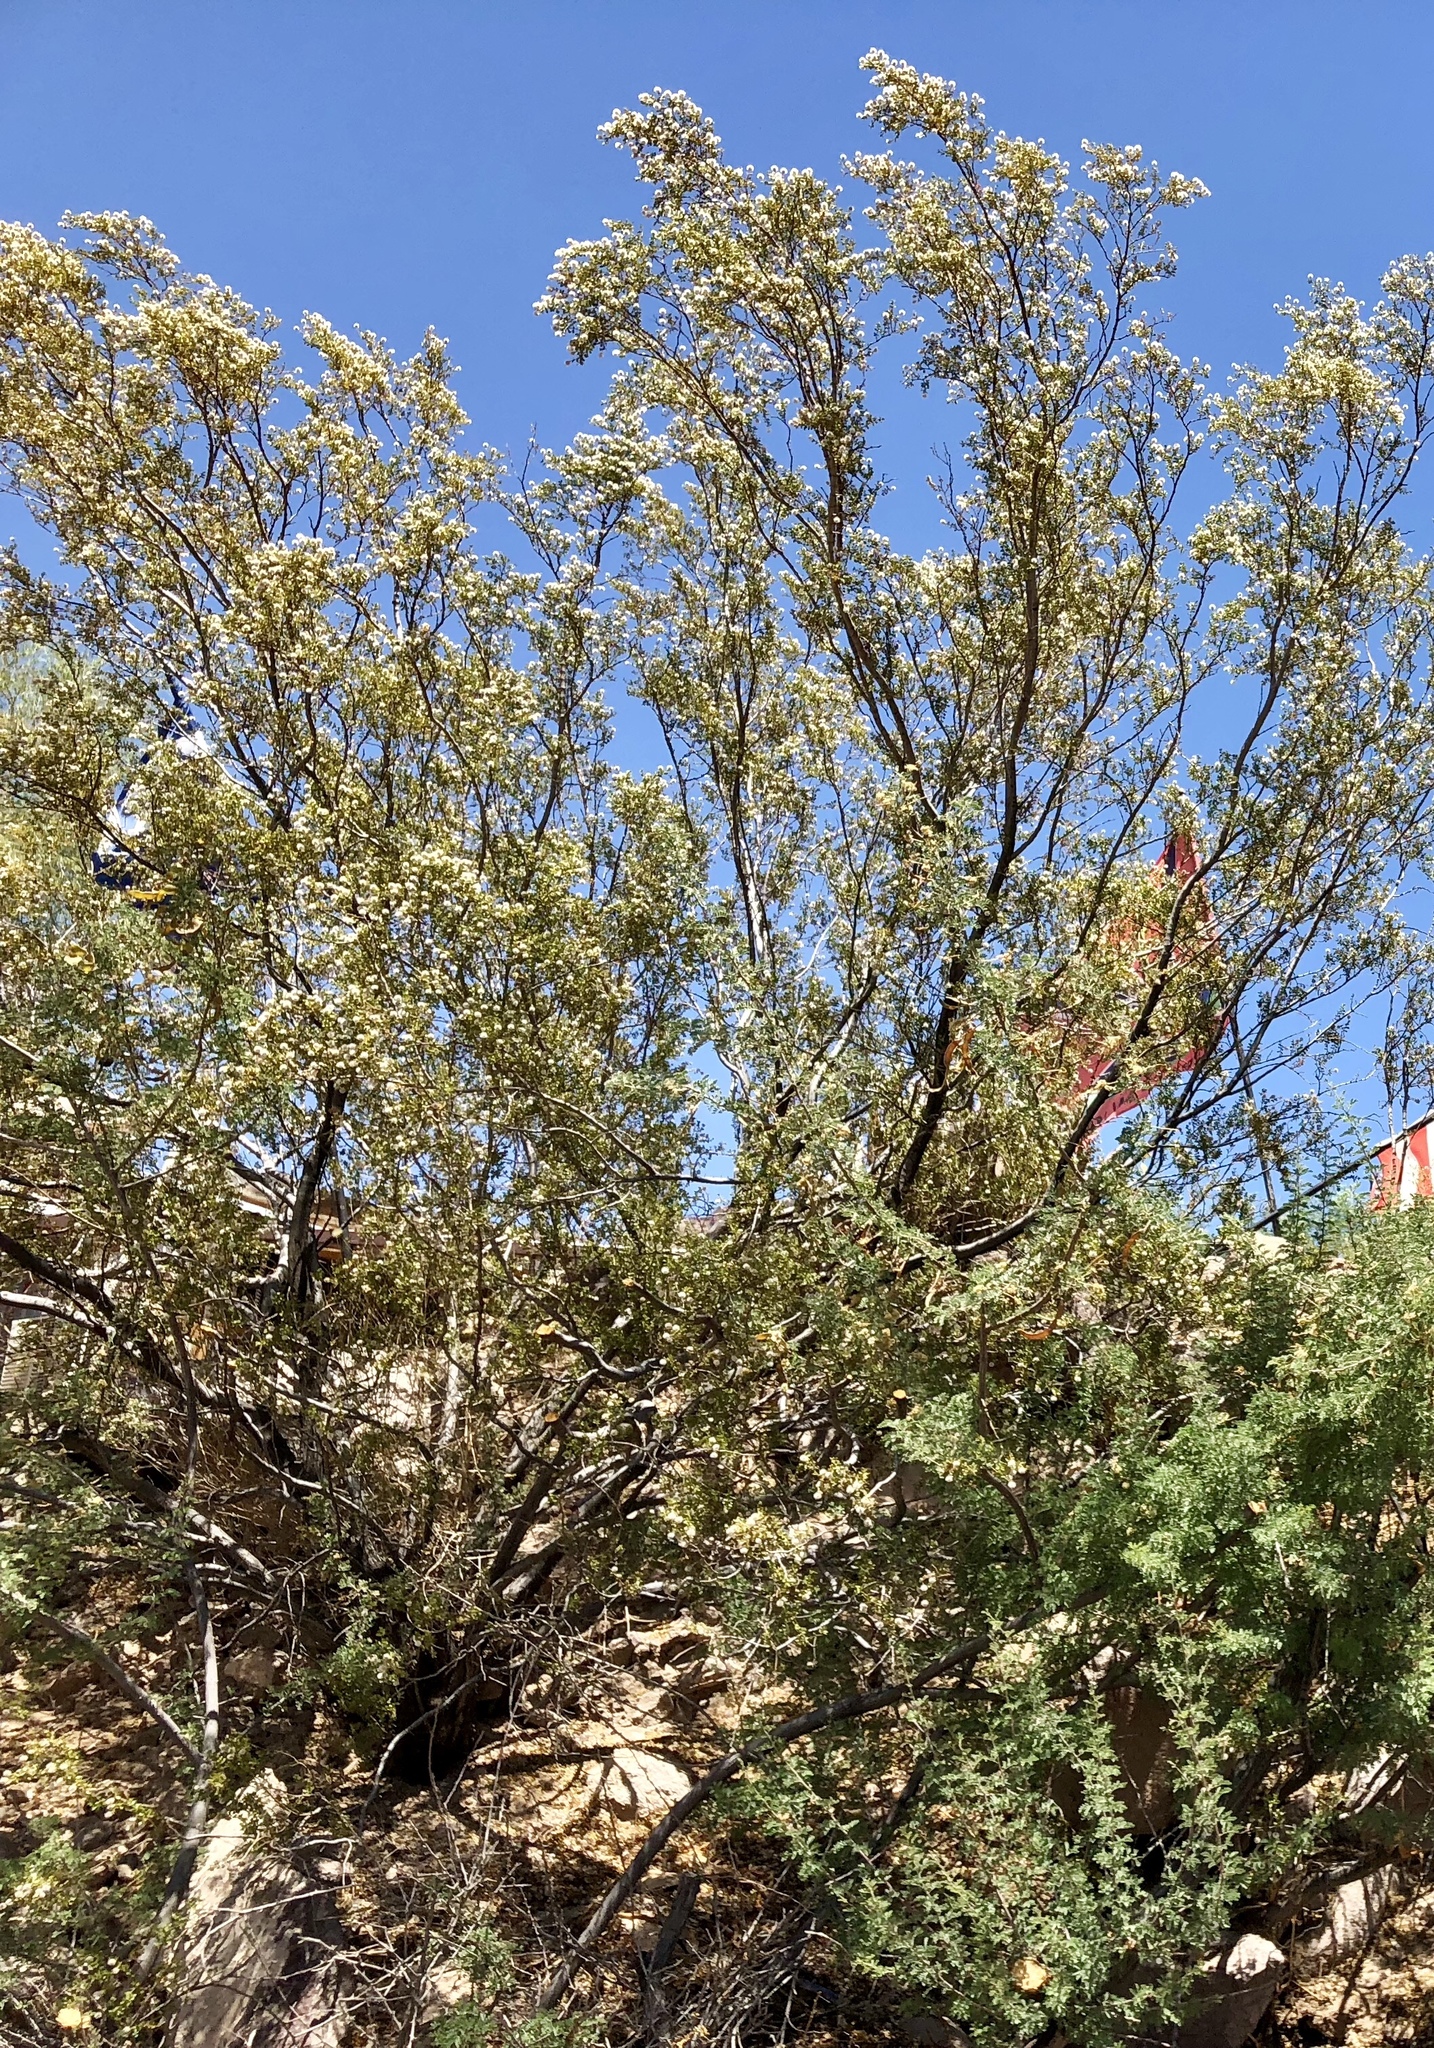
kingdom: Plantae
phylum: Tracheophyta
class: Magnoliopsida
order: Zygophyllales
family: Zygophyllaceae
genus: Larrea
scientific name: Larrea tridentata
